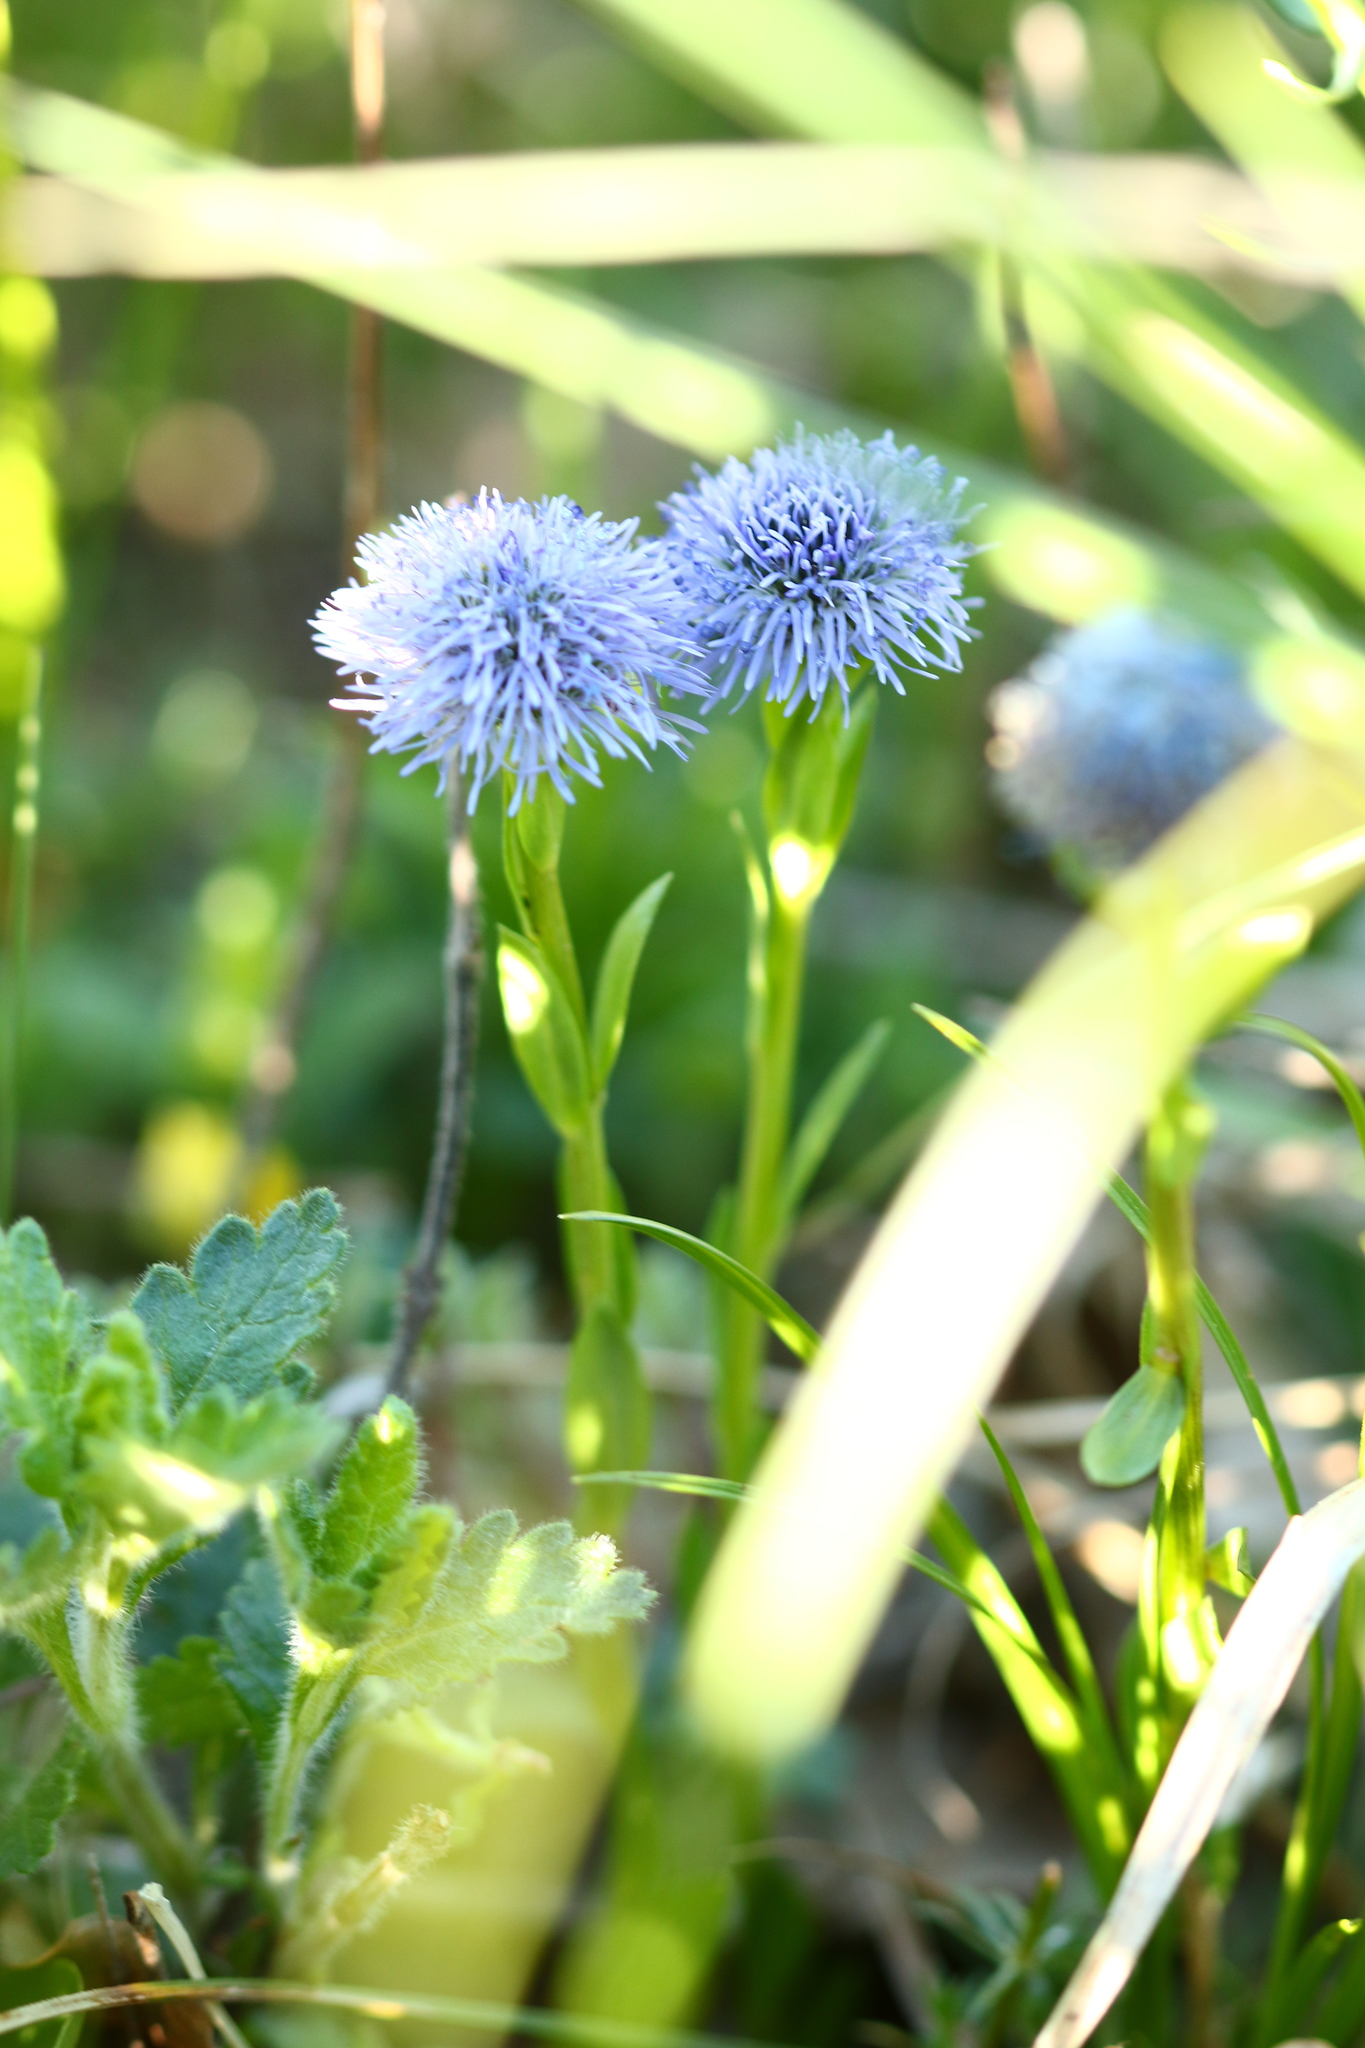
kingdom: Plantae
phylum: Tracheophyta
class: Magnoliopsida
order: Lamiales
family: Plantaginaceae
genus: Globularia
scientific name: Globularia bisnagarica
